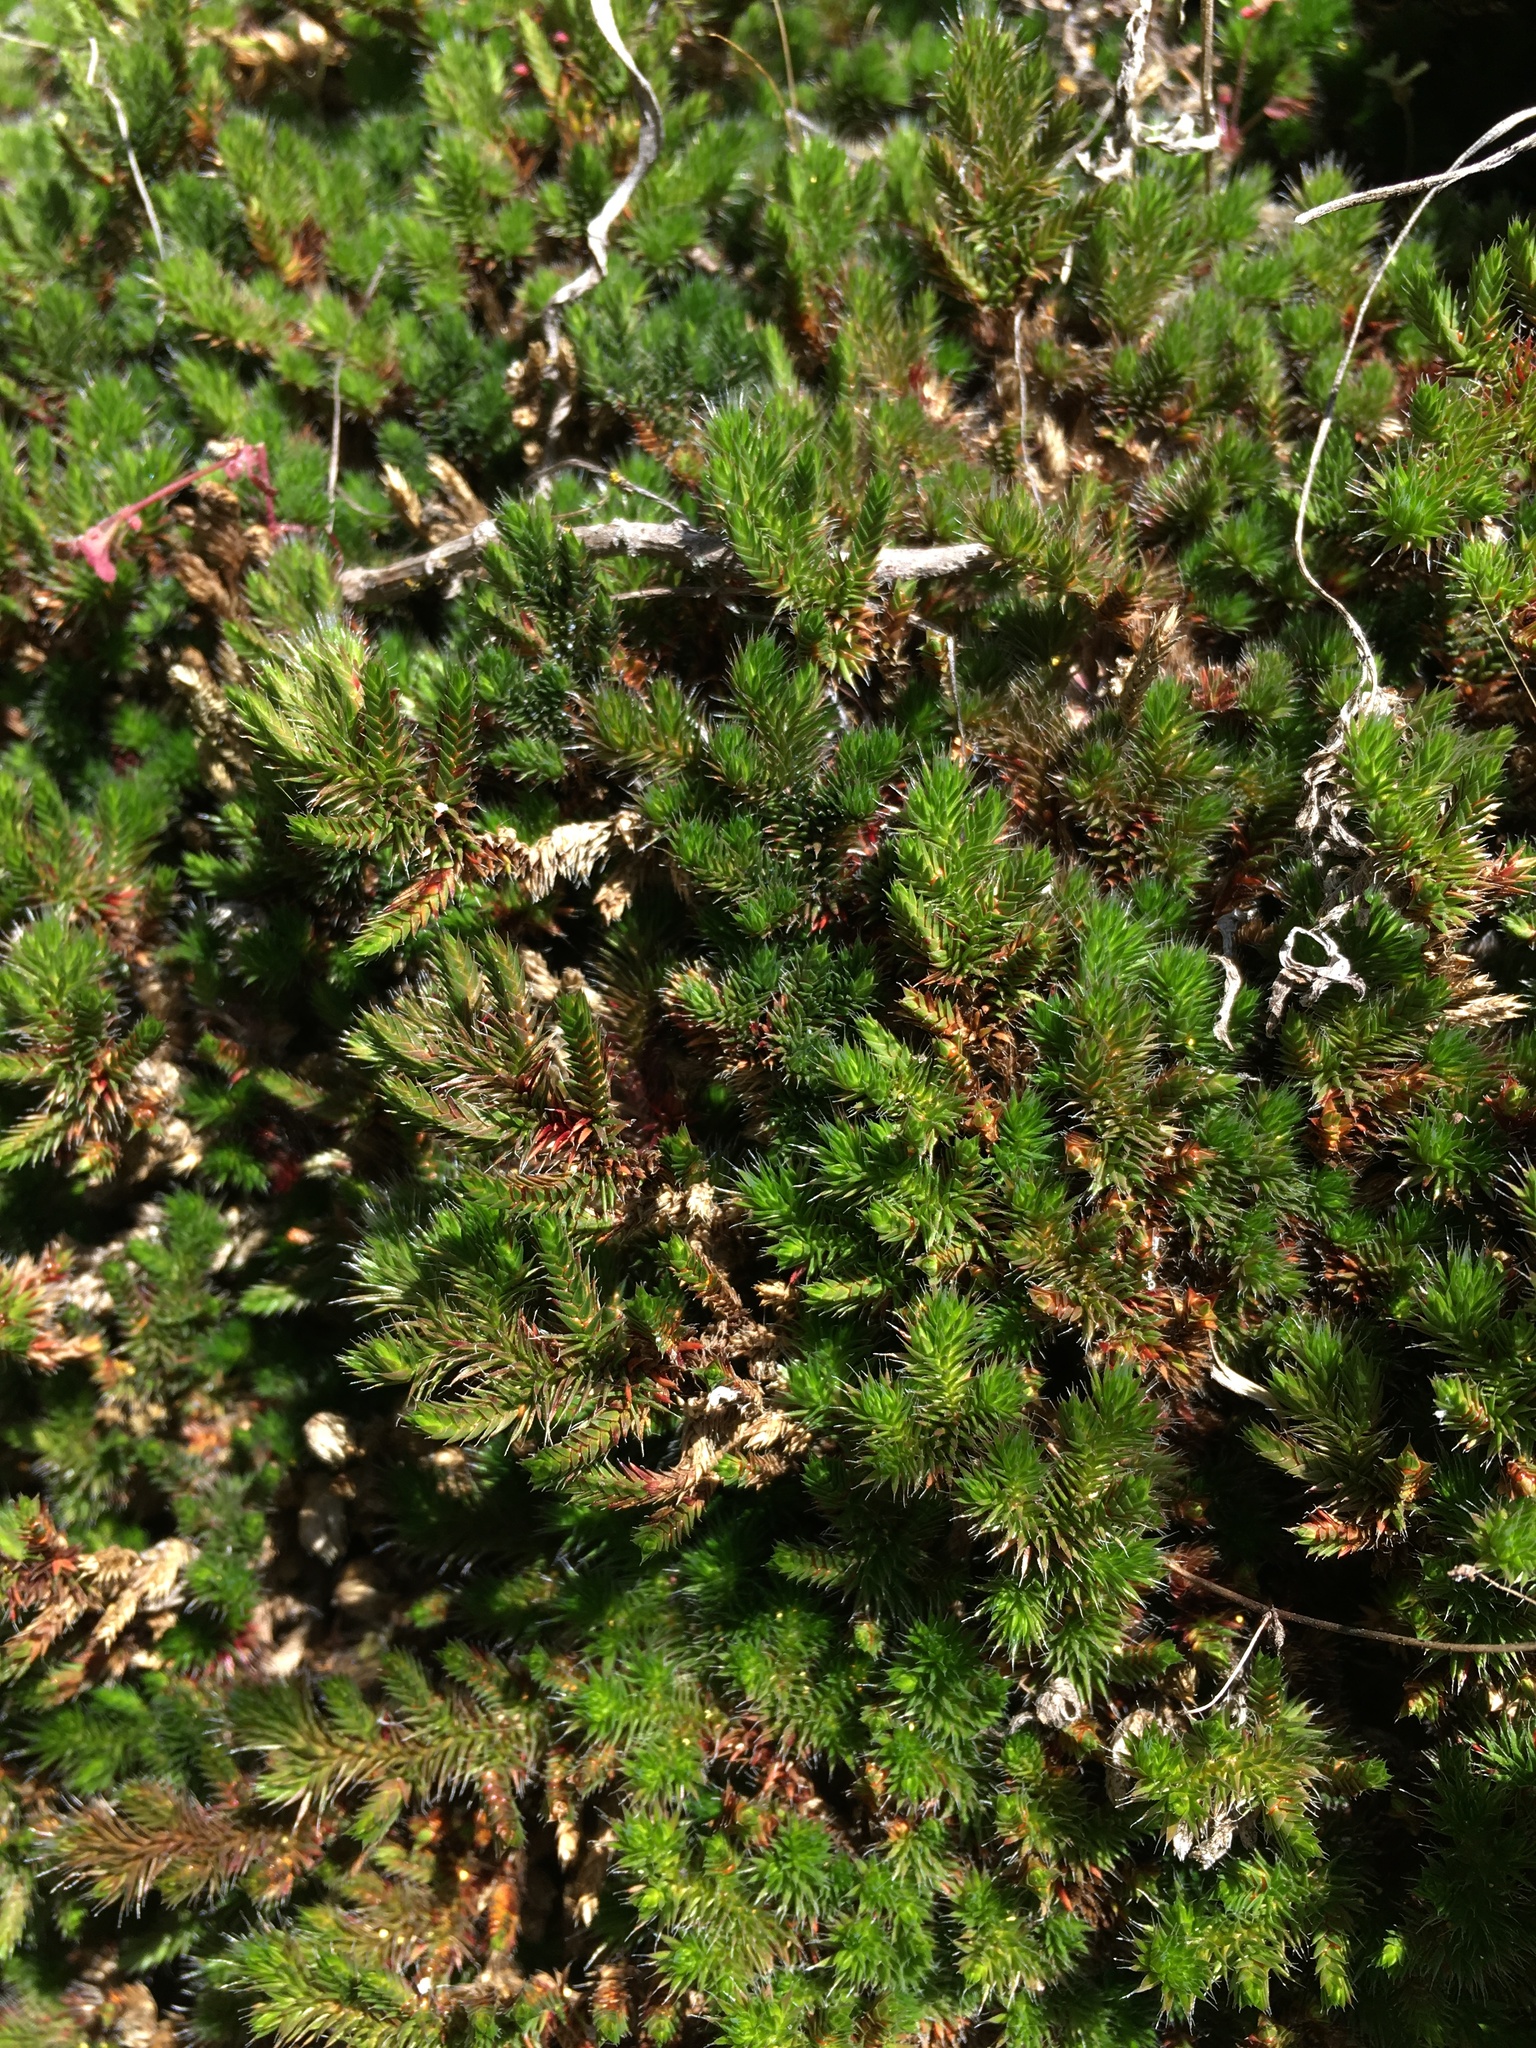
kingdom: Plantae
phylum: Tracheophyta
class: Lycopodiopsida
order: Selaginellales
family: Selaginellaceae
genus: Selaginella
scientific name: Selaginella hansenii
